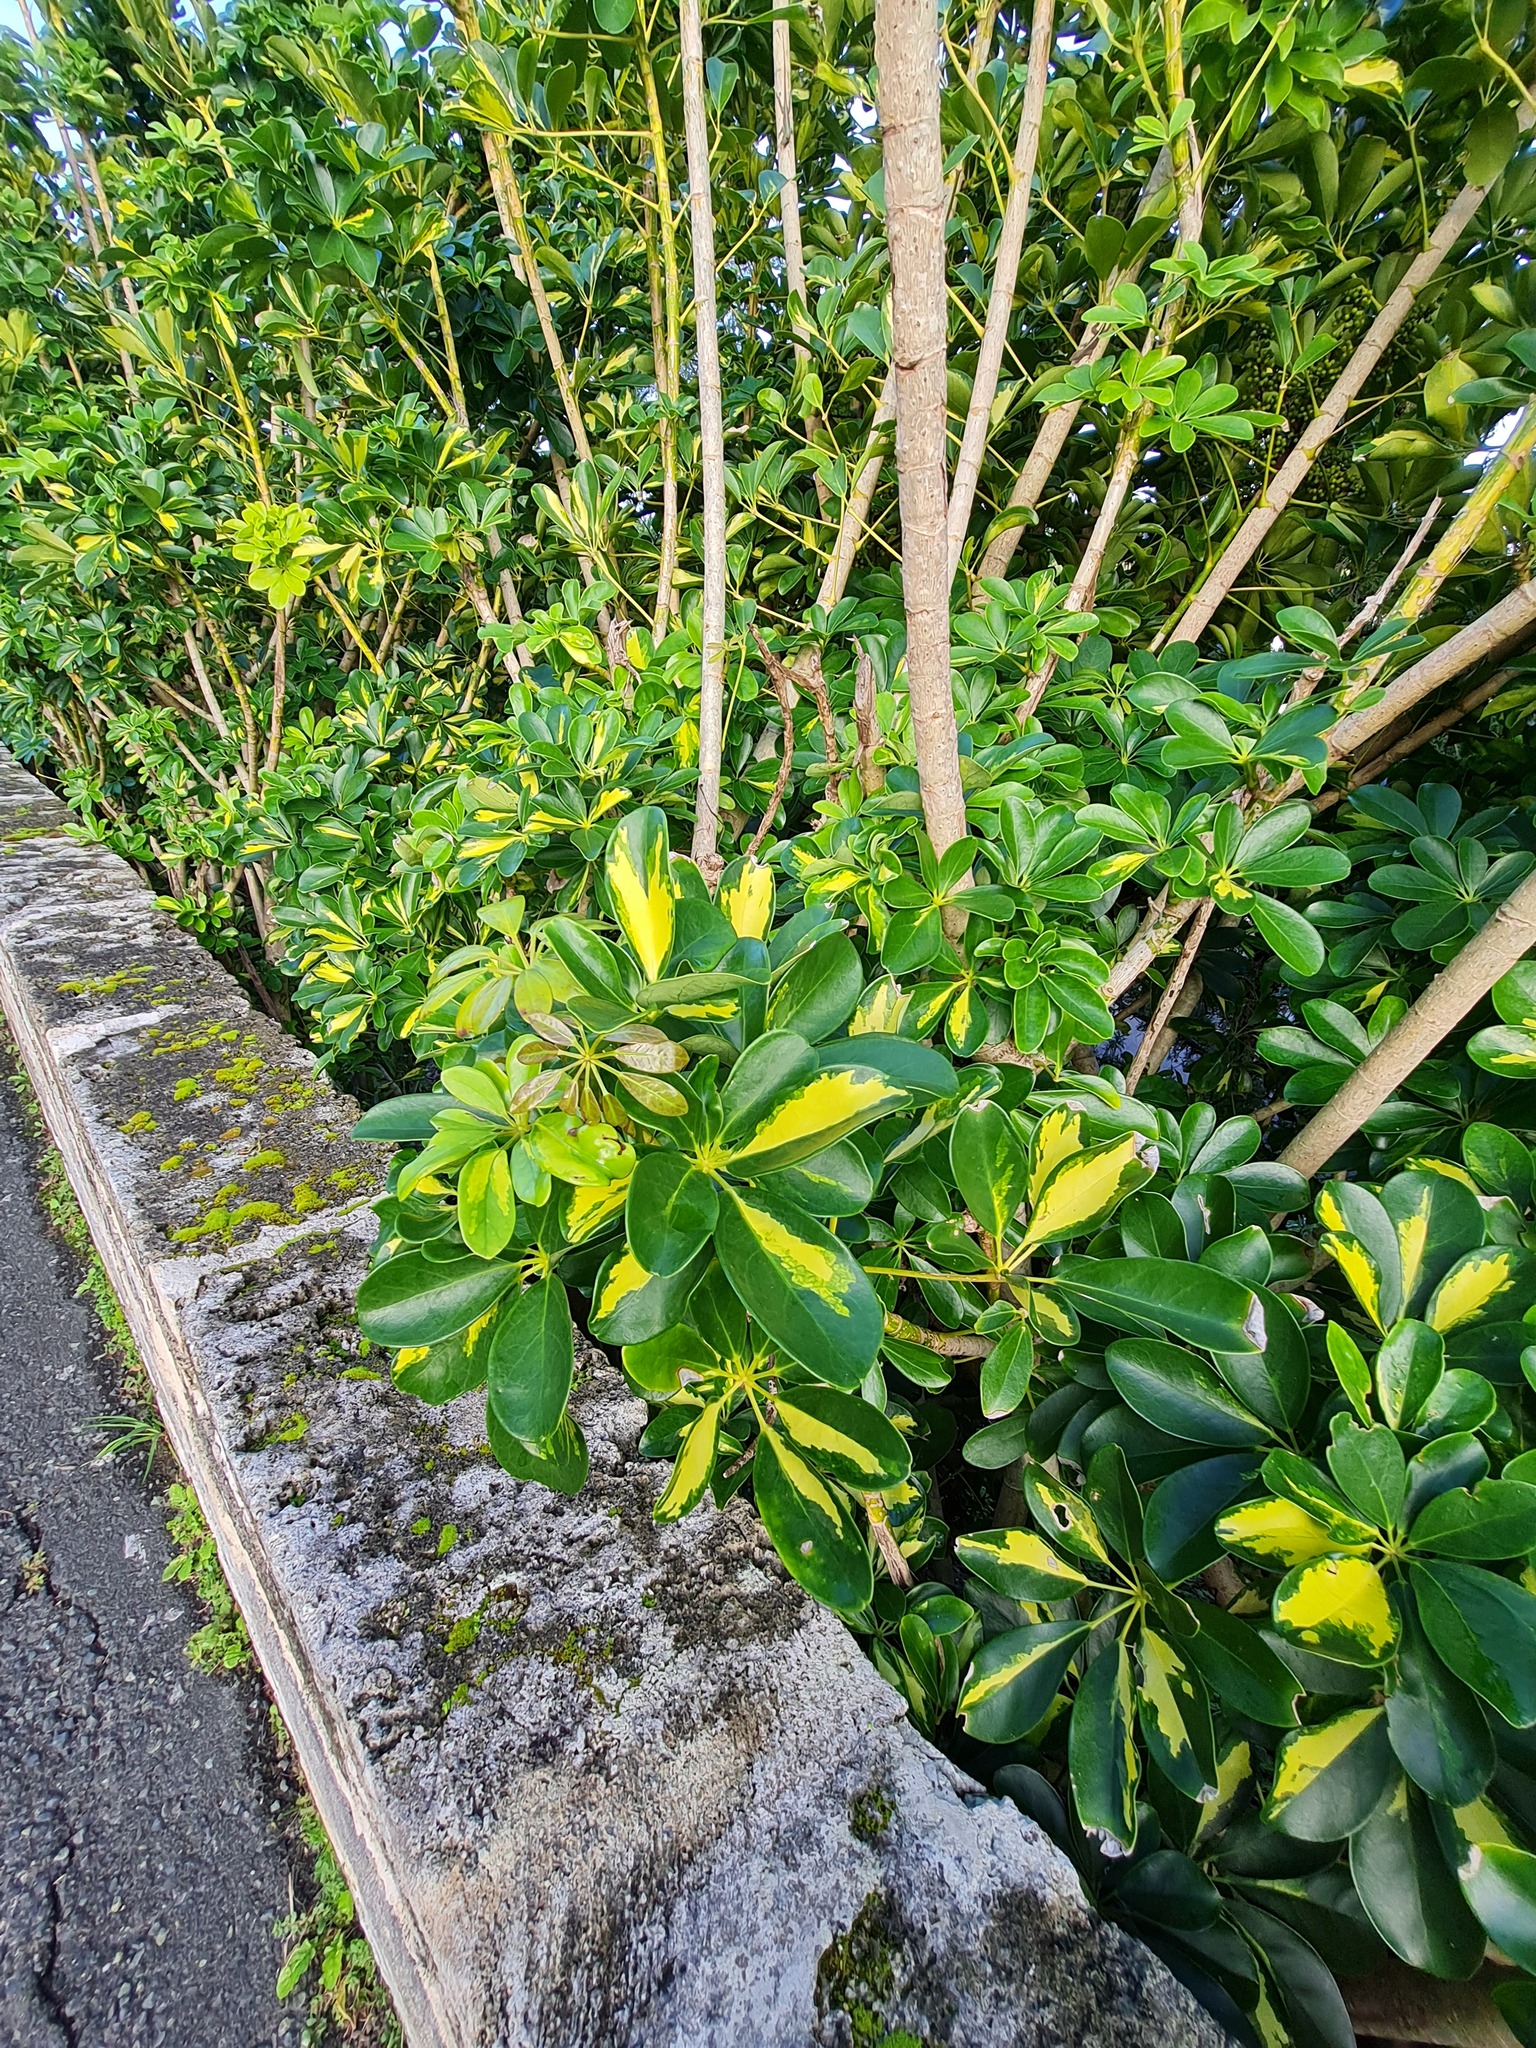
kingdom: Plantae
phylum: Tracheophyta
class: Magnoliopsida
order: Apiales
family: Araliaceae
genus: Heptapleurum
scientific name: Heptapleurum arboricola
